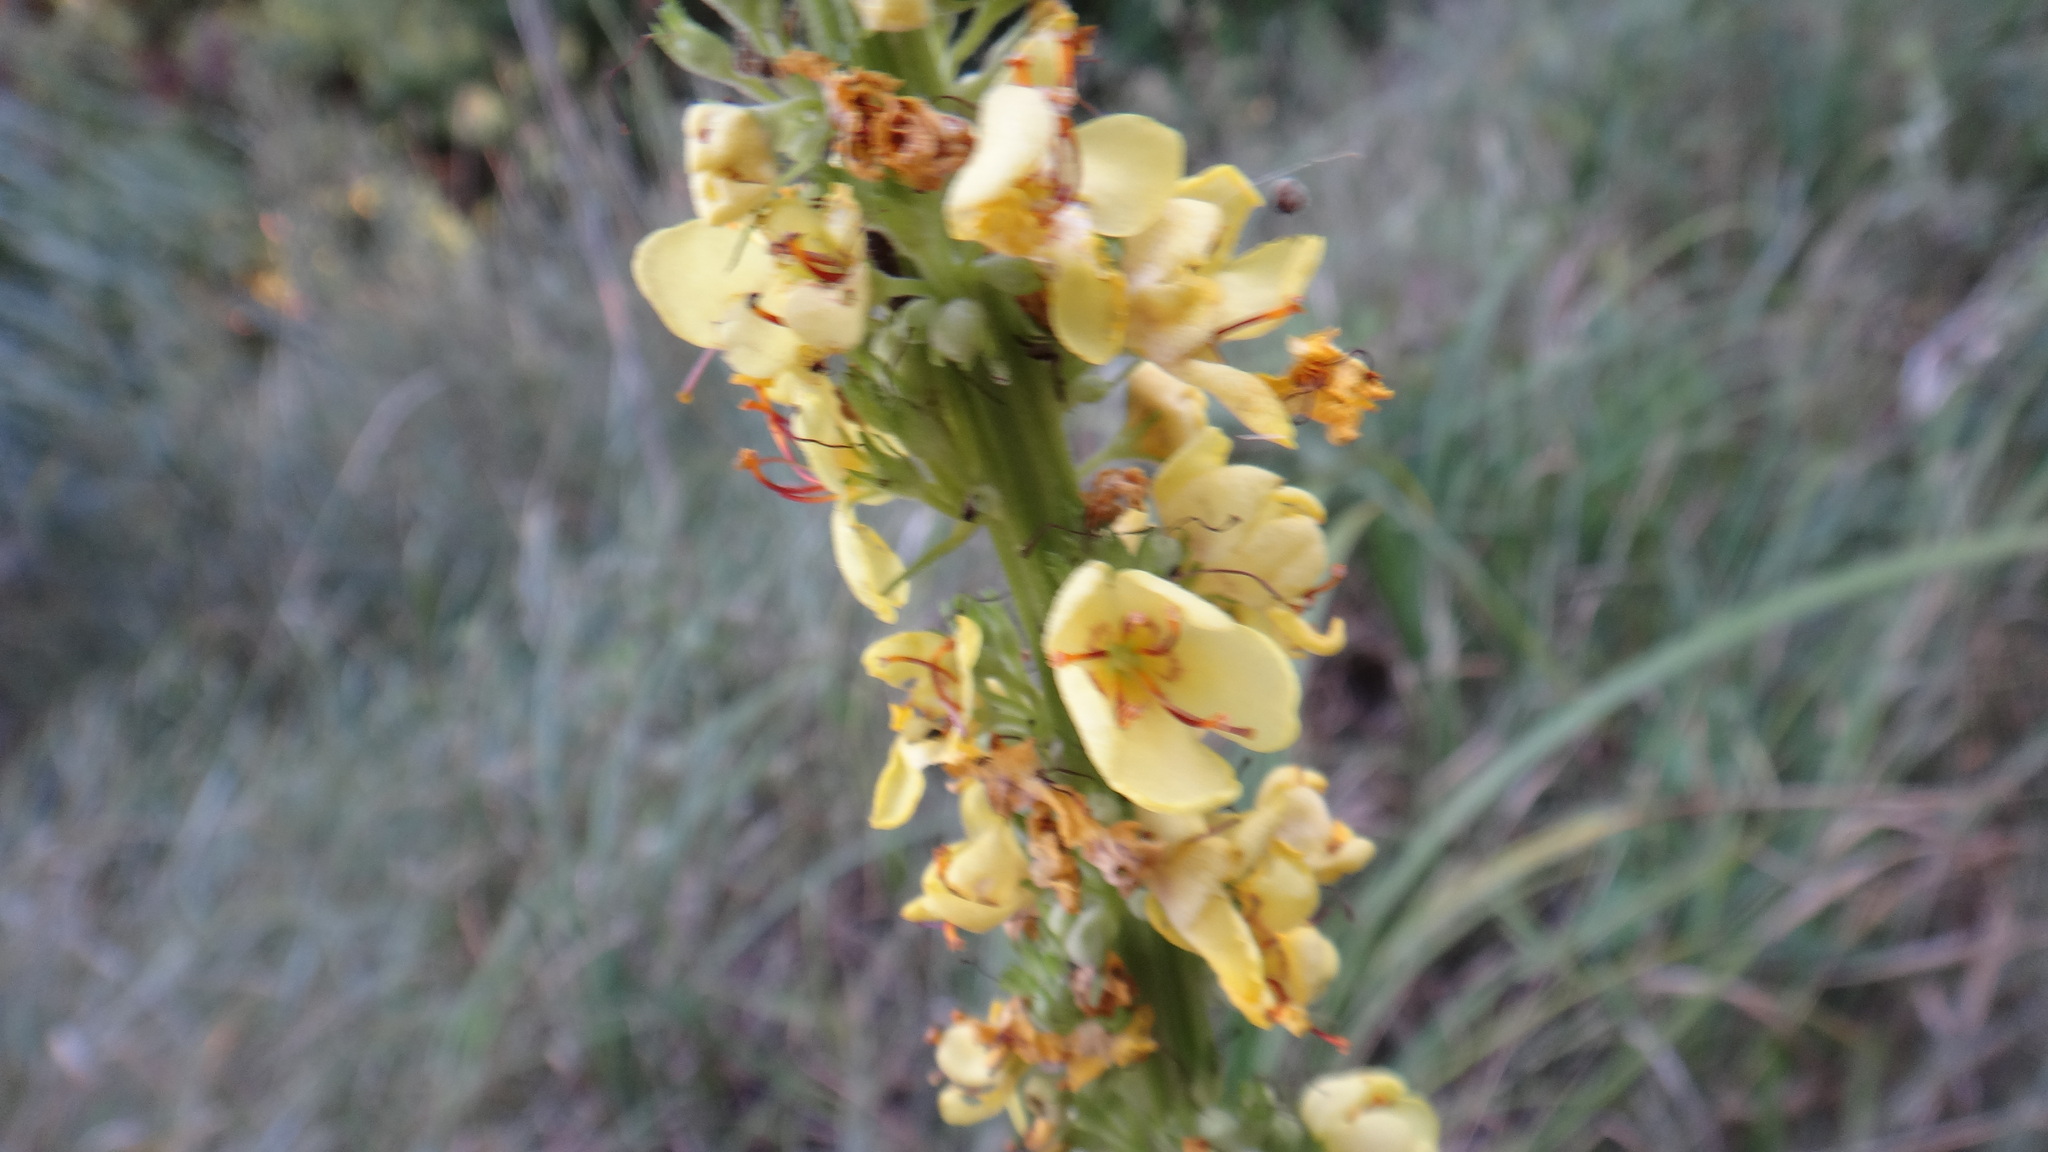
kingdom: Plantae
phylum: Tracheophyta
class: Magnoliopsida
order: Lamiales
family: Scrophulariaceae
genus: Verbascum
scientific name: Verbascum nigrum
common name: Dark mullein
